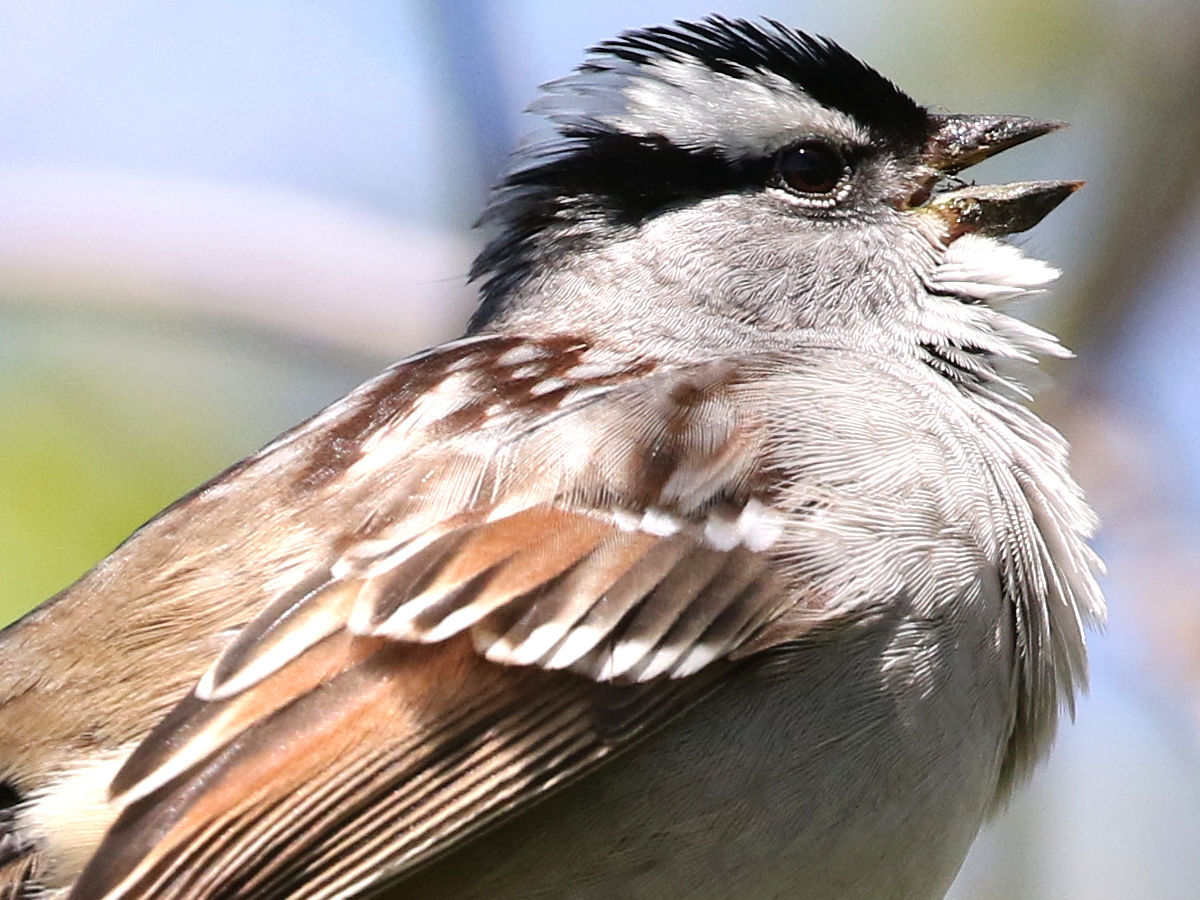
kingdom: Animalia
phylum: Chordata
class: Aves
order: Passeriformes
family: Passerellidae
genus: Zonotrichia
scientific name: Zonotrichia leucophrys
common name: White-crowned sparrow
